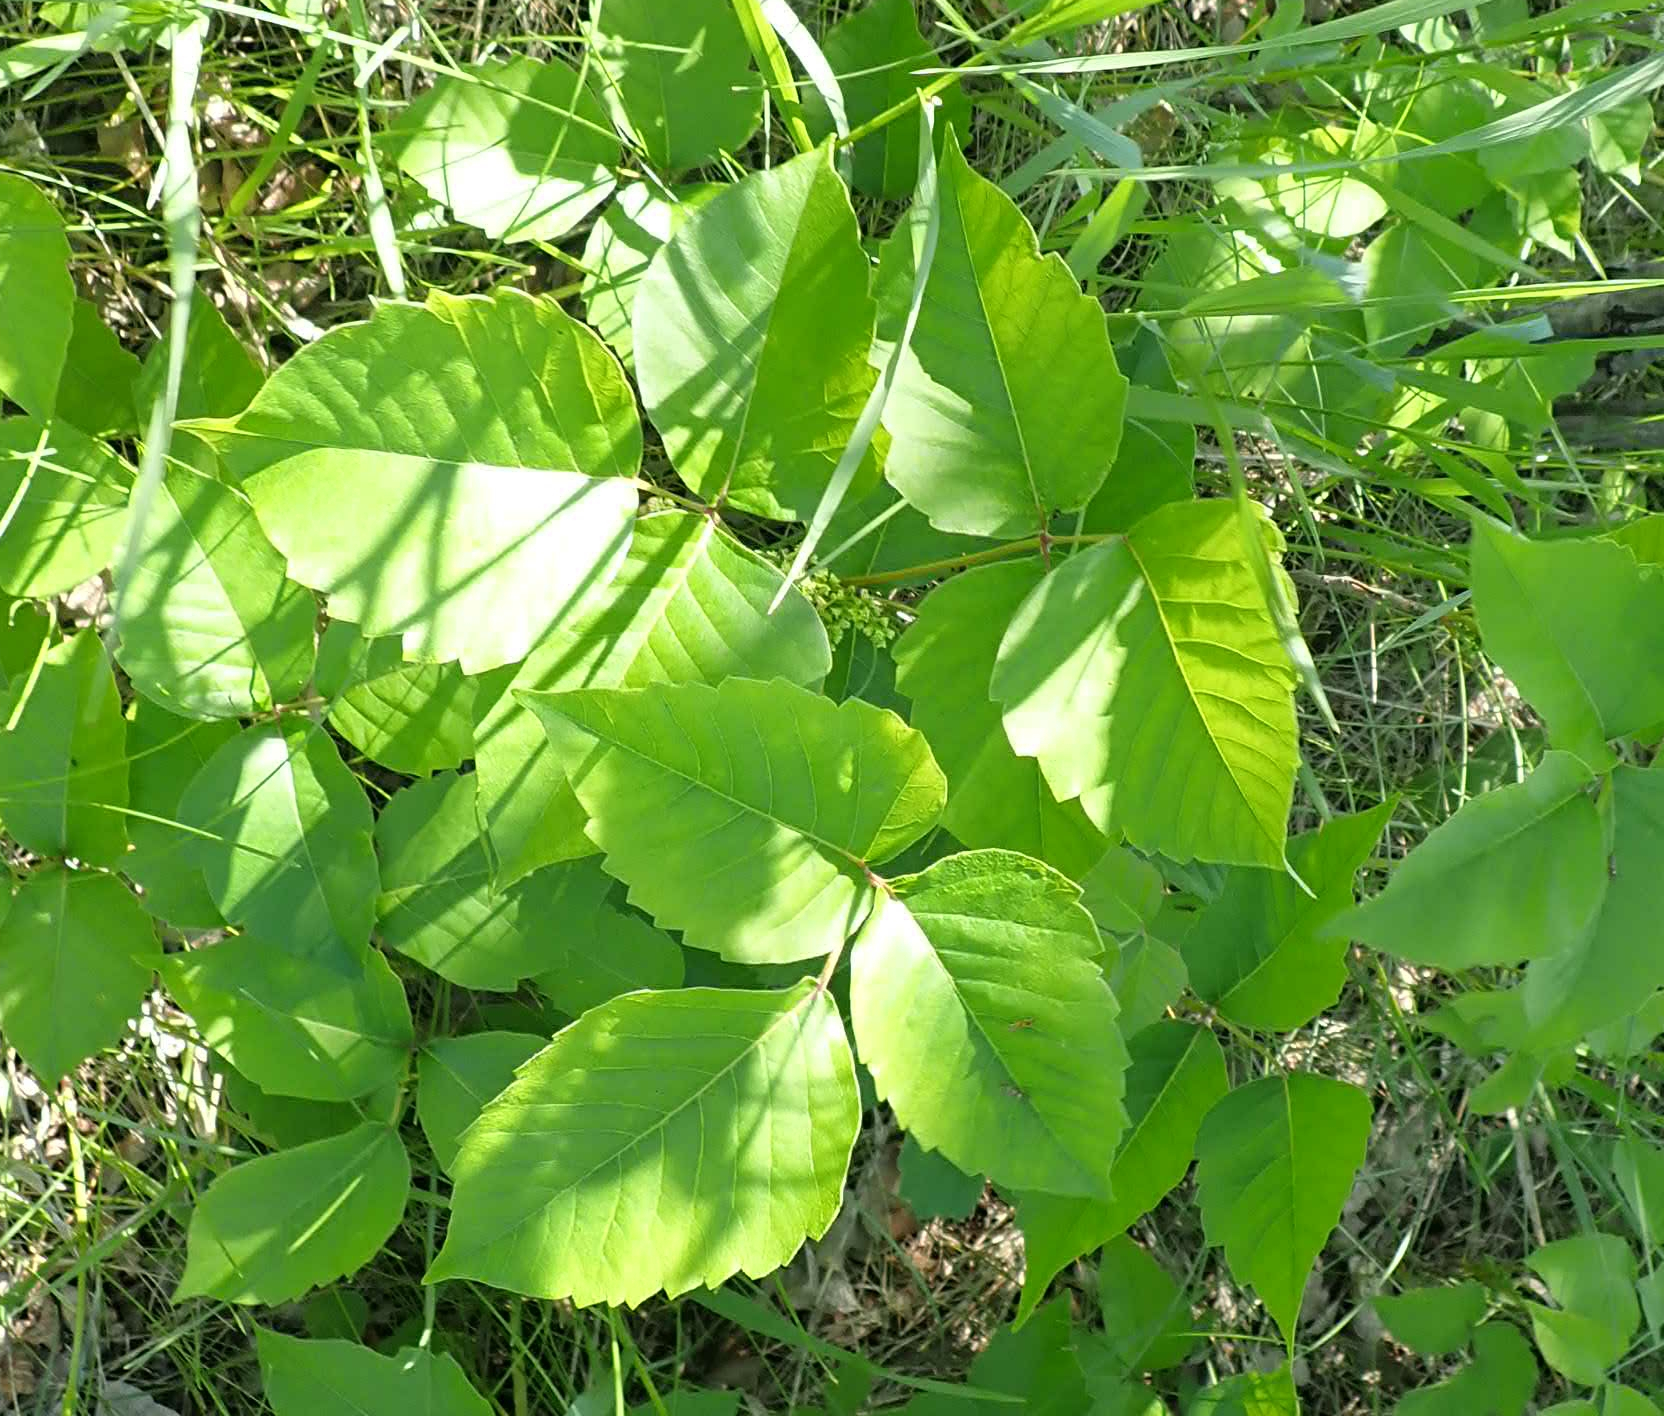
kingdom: Plantae
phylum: Tracheophyta
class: Magnoliopsida
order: Sapindales
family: Anacardiaceae
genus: Toxicodendron
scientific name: Toxicodendron rydbergii
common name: Rydberg's poison-ivy
